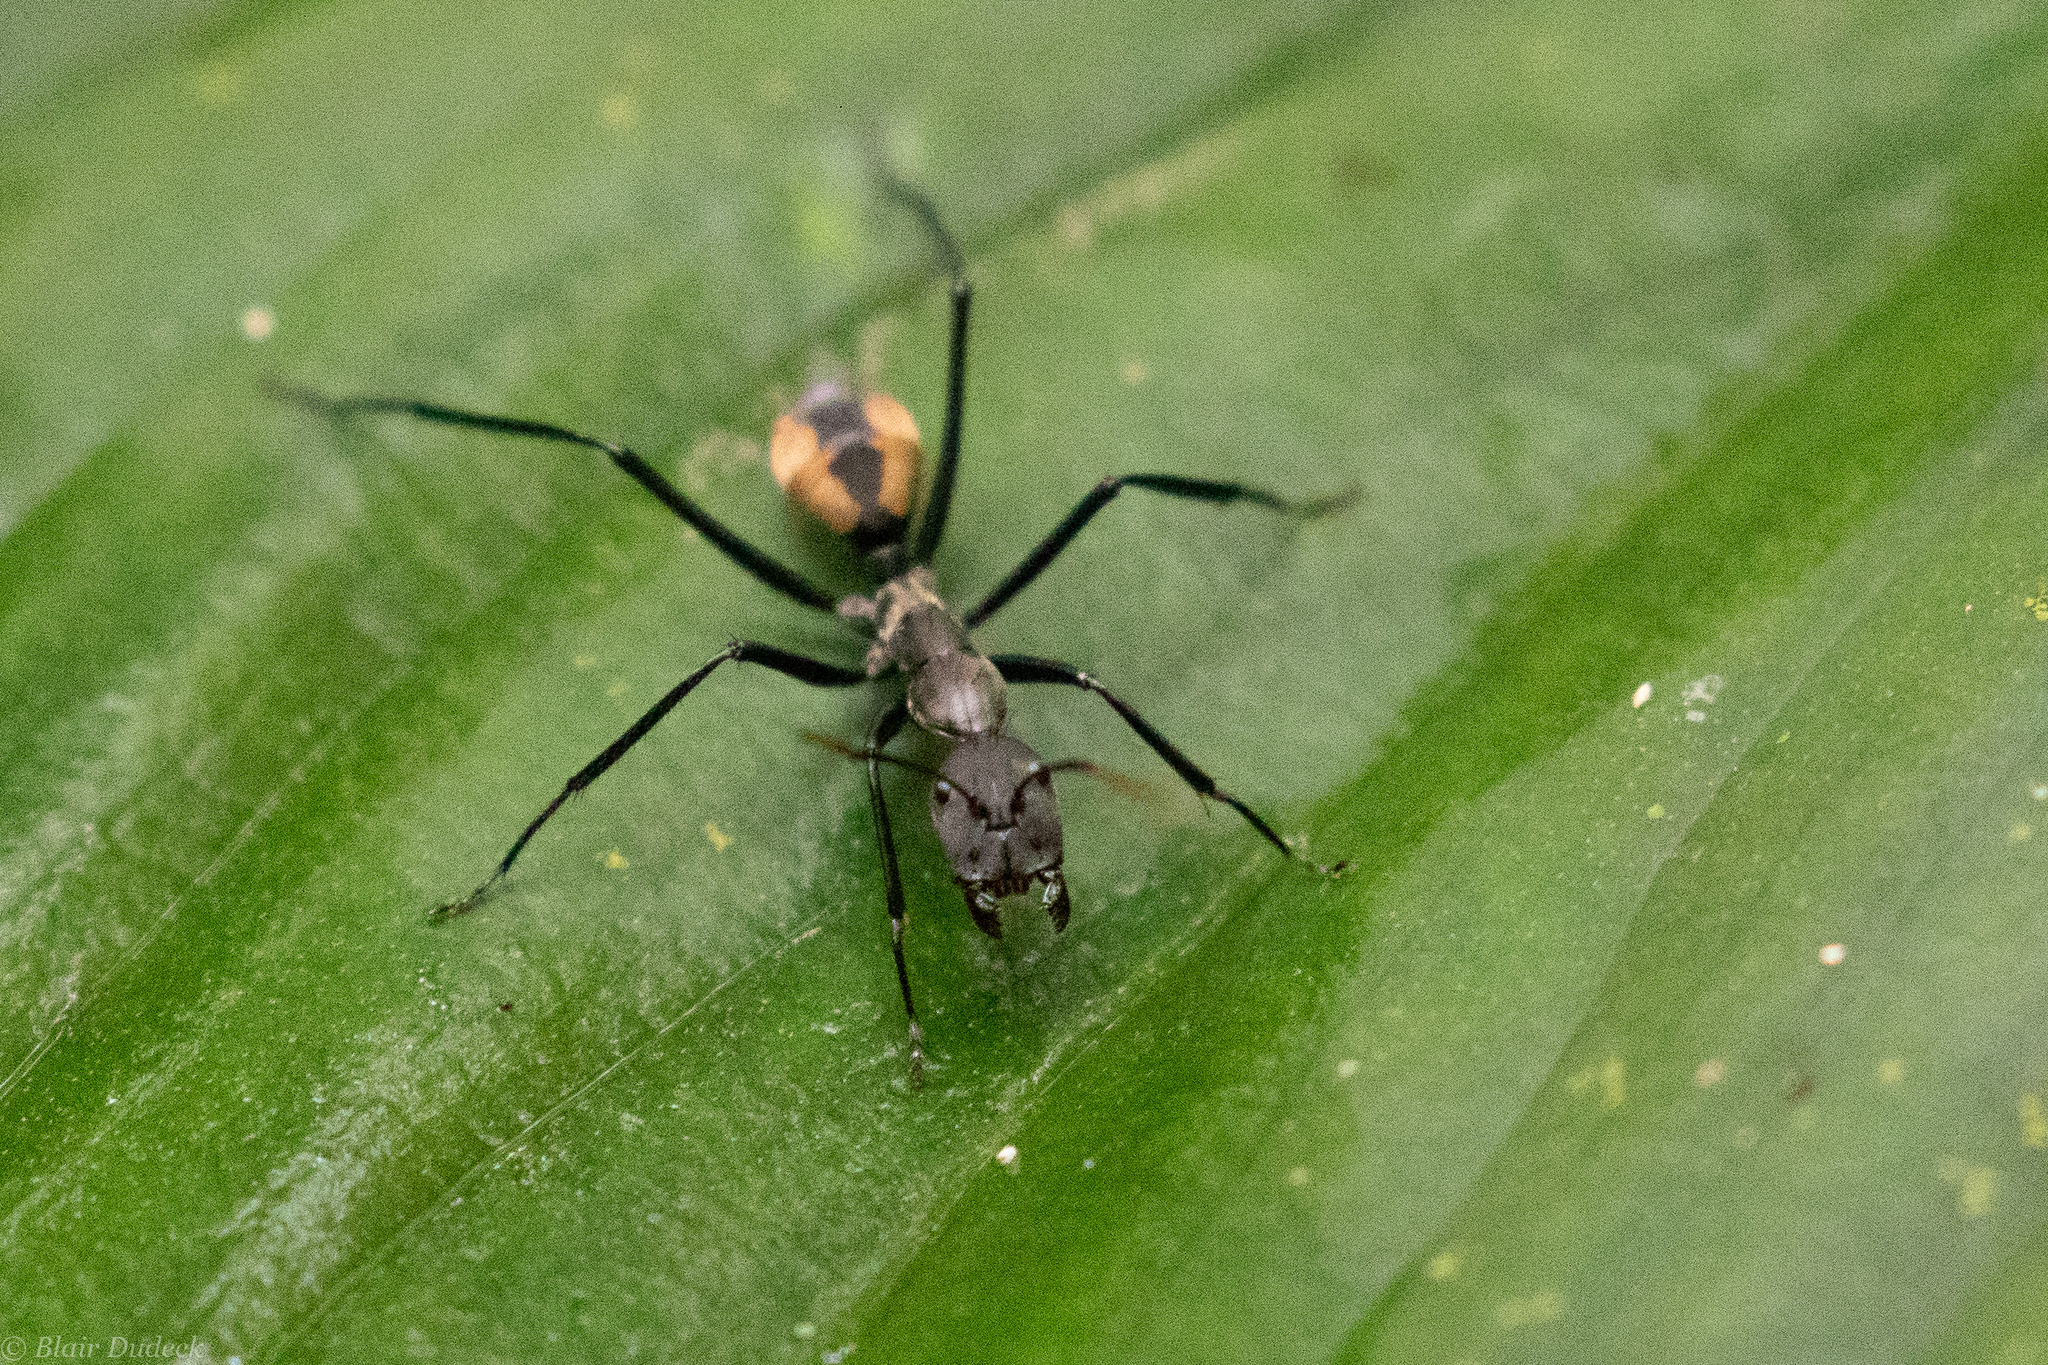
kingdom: Animalia
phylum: Arthropoda
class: Insecta
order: Hymenoptera
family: Formicidae
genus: Camponotus
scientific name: Camponotus banghaasi
